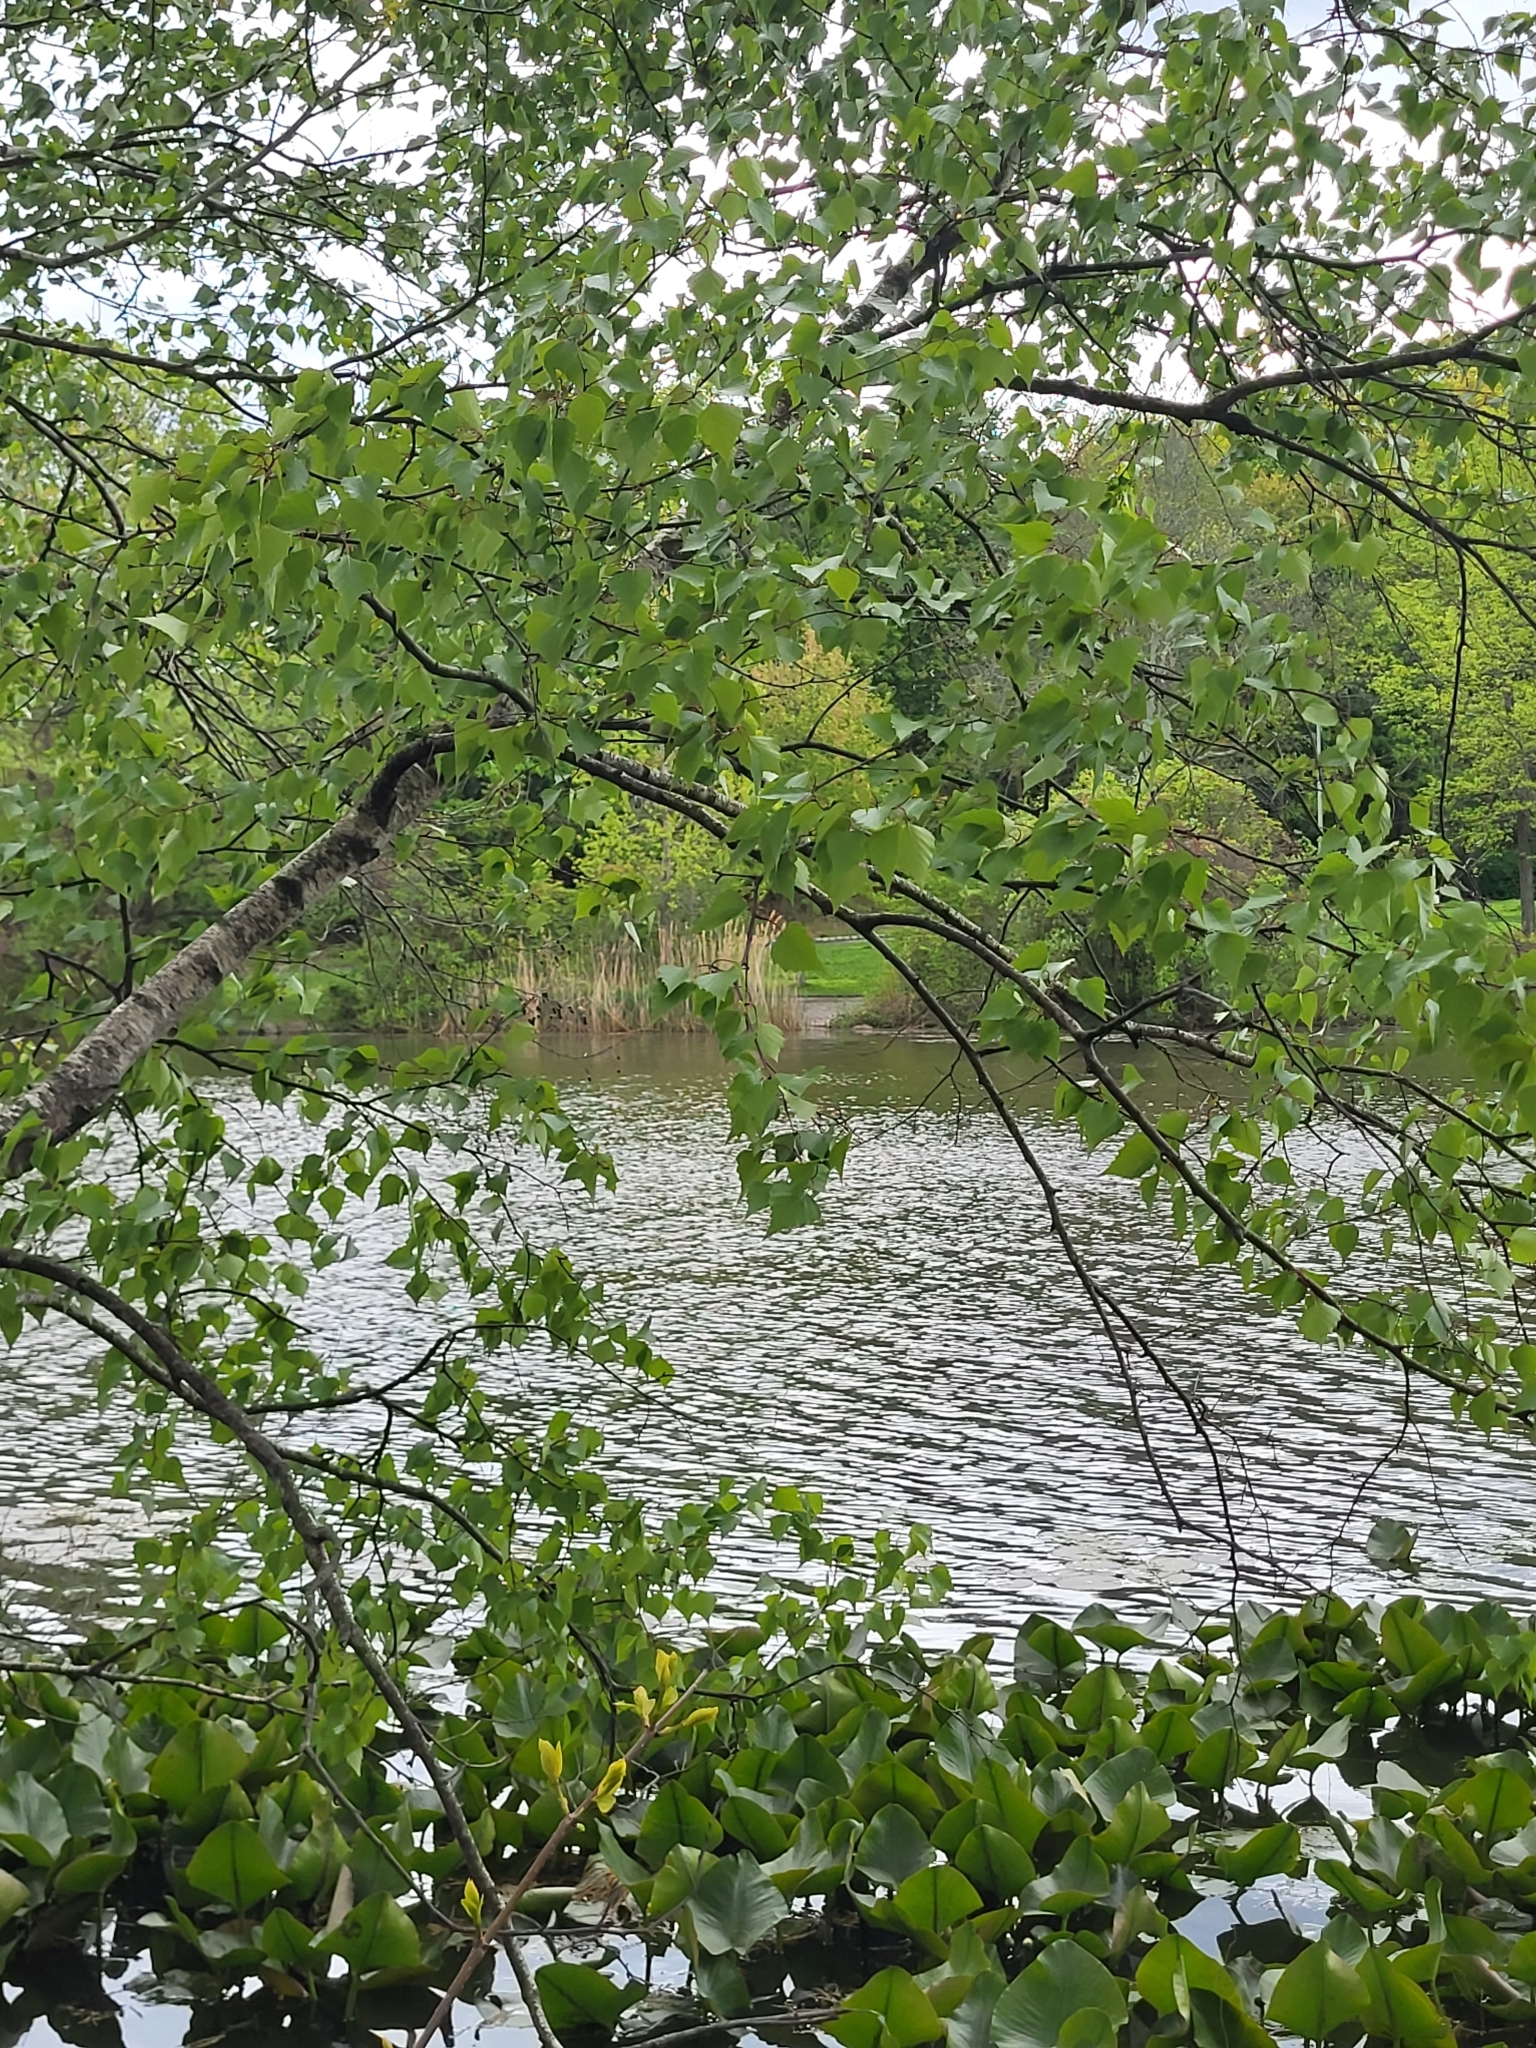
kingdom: Plantae
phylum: Tracheophyta
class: Magnoliopsida
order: Fagales
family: Betulaceae
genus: Betula
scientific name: Betula populifolia
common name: Fire birch
